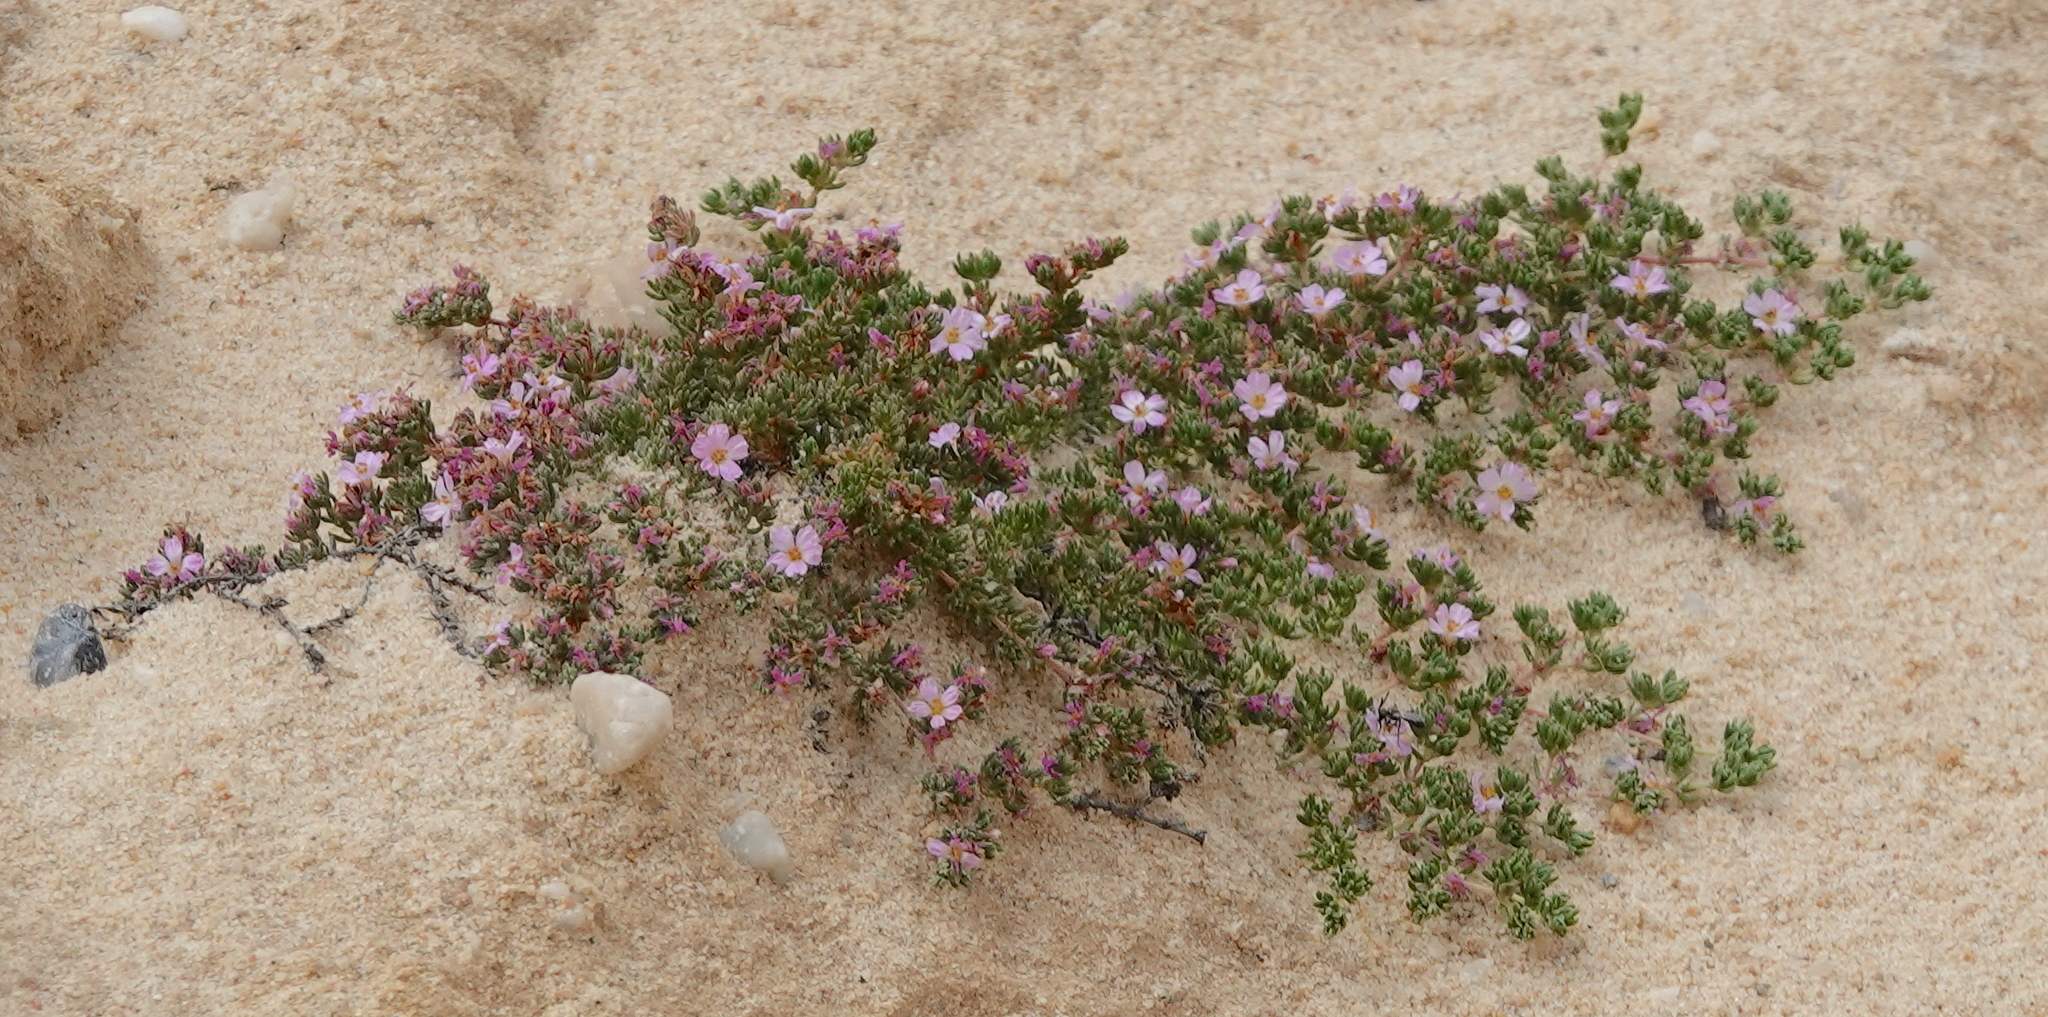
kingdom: Plantae
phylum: Tracheophyta
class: Magnoliopsida
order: Caryophyllales
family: Frankeniaceae
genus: Frankenia
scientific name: Frankenia laevis
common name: Sea-heath
